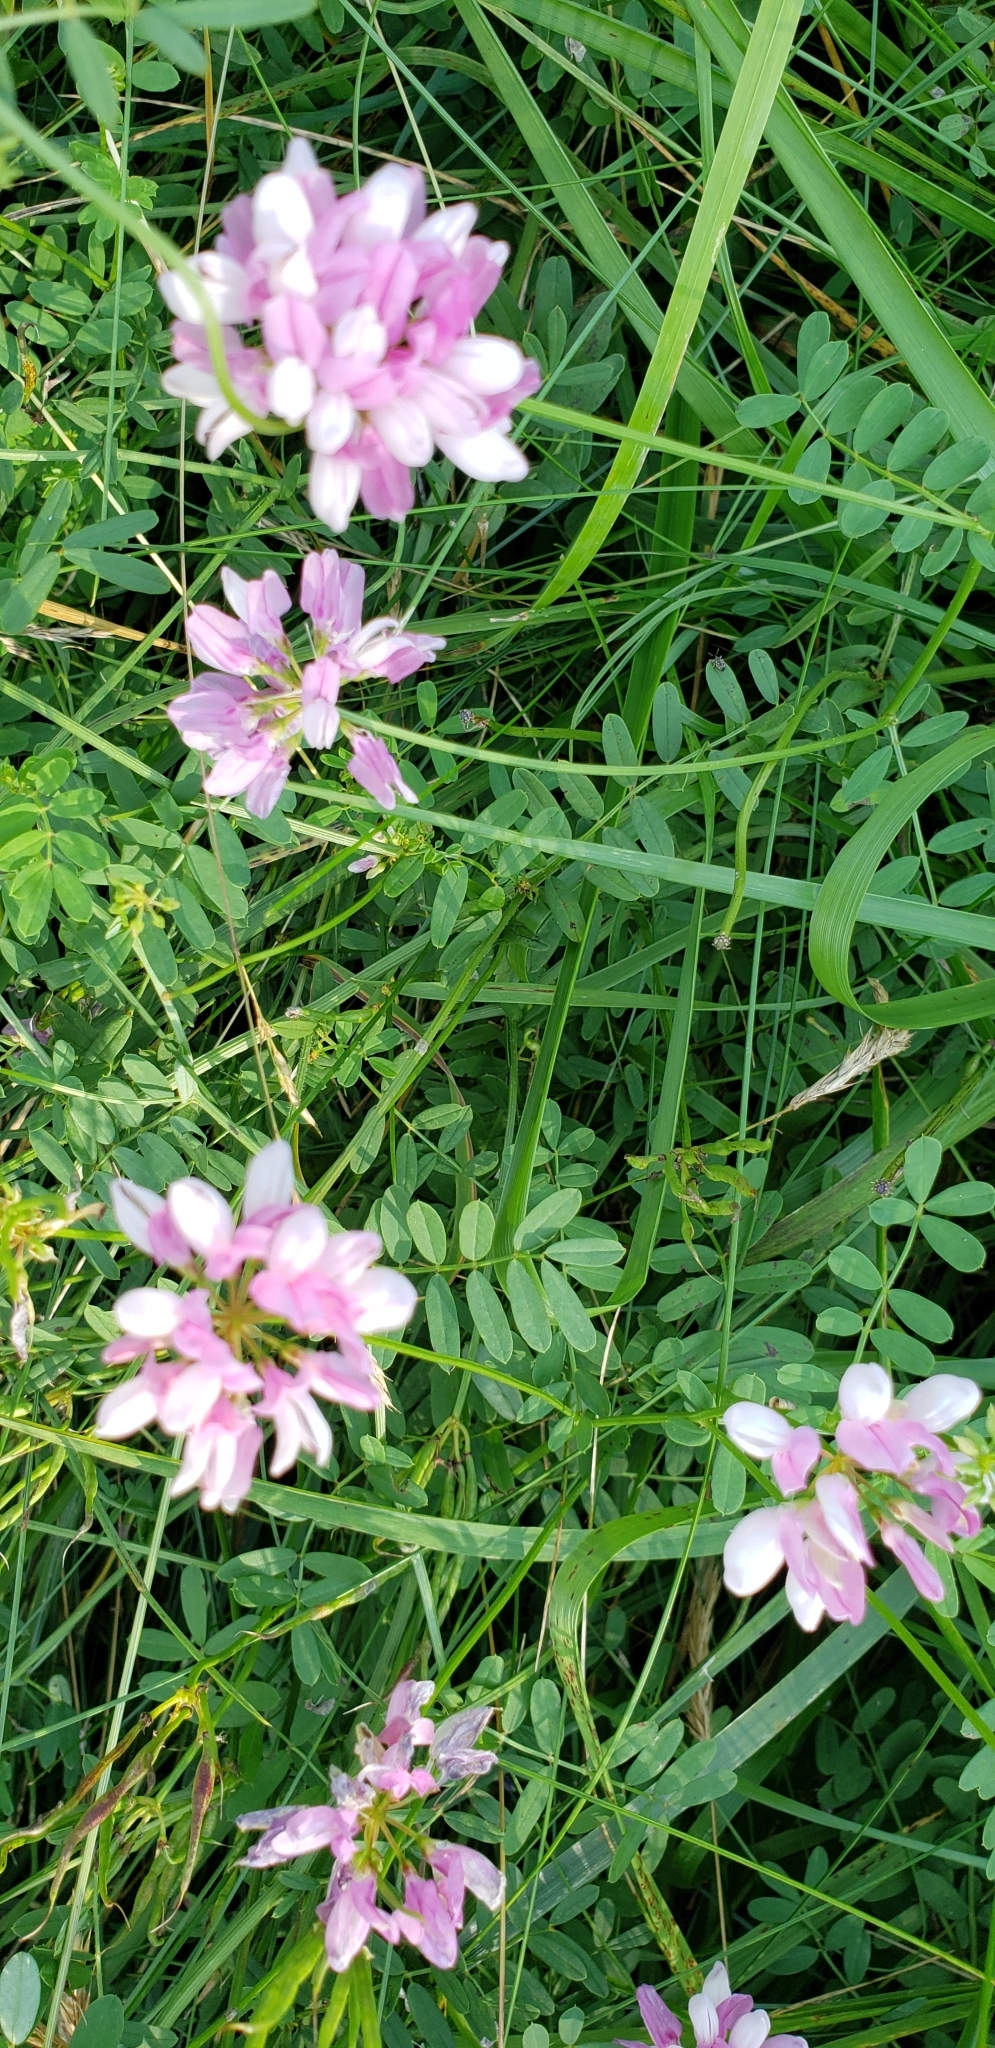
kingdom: Plantae
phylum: Tracheophyta
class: Magnoliopsida
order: Fabales
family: Fabaceae
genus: Coronilla
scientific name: Coronilla varia
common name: Crownvetch
